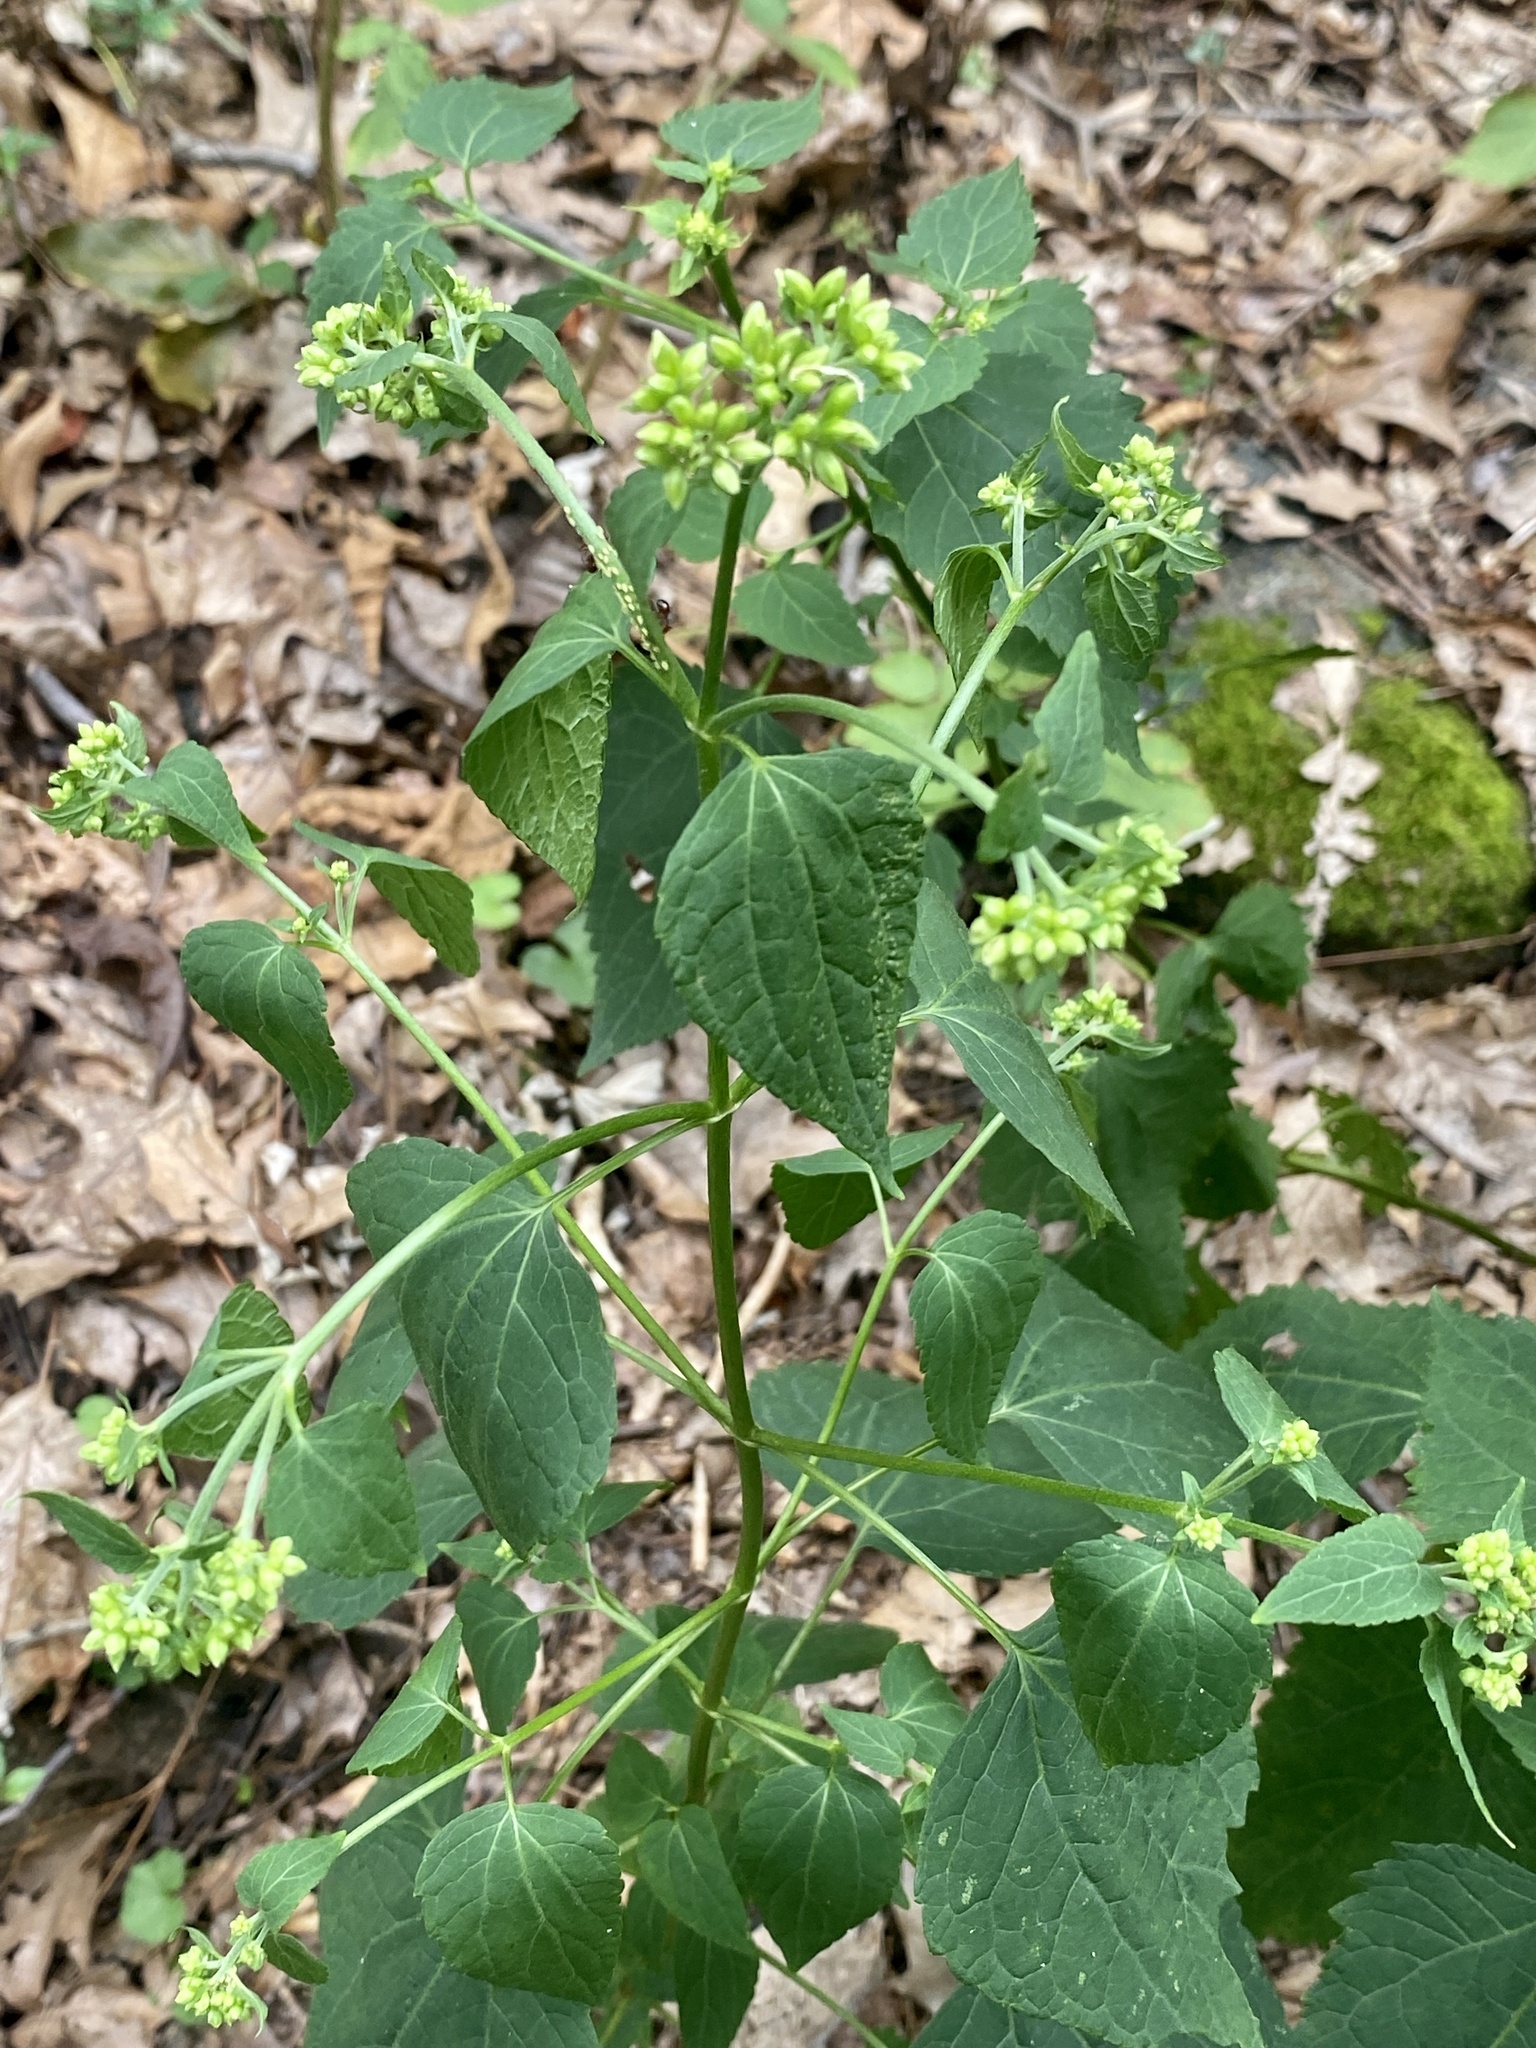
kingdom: Plantae
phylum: Tracheophyta
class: Magnoliopsida
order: Asterales
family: Asteraceae
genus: Ageratina
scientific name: Ageratina altissima
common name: White snakeroot
